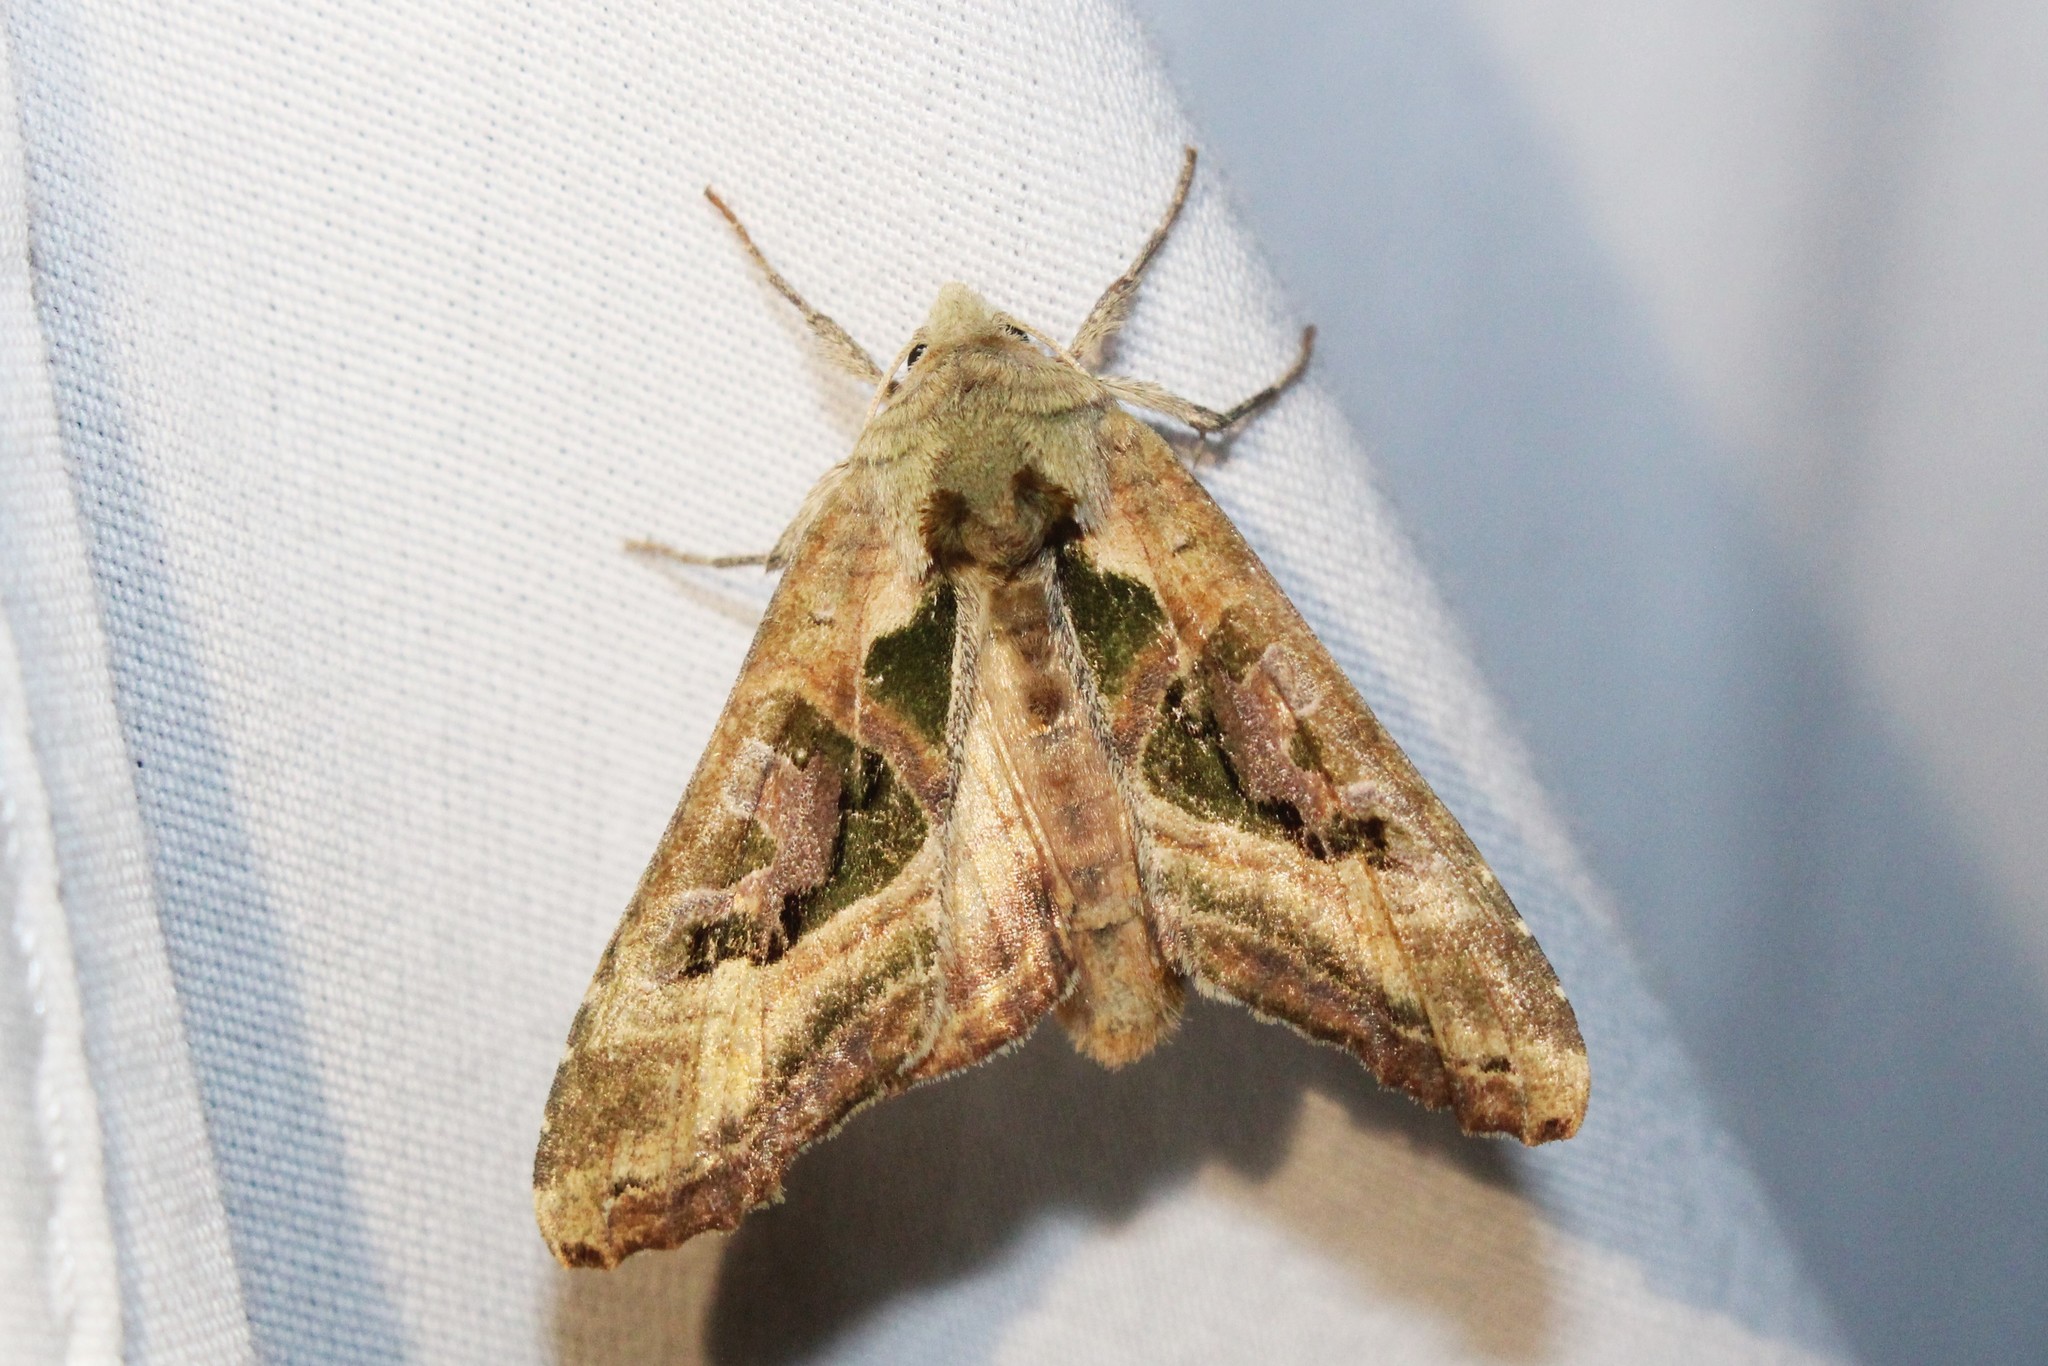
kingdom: Animalia
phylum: Arthropoda
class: Insecta
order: Lepidoptera
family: Noctuidae
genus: Phlogophora
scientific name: Phlogophora iris
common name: Olive angle shades
